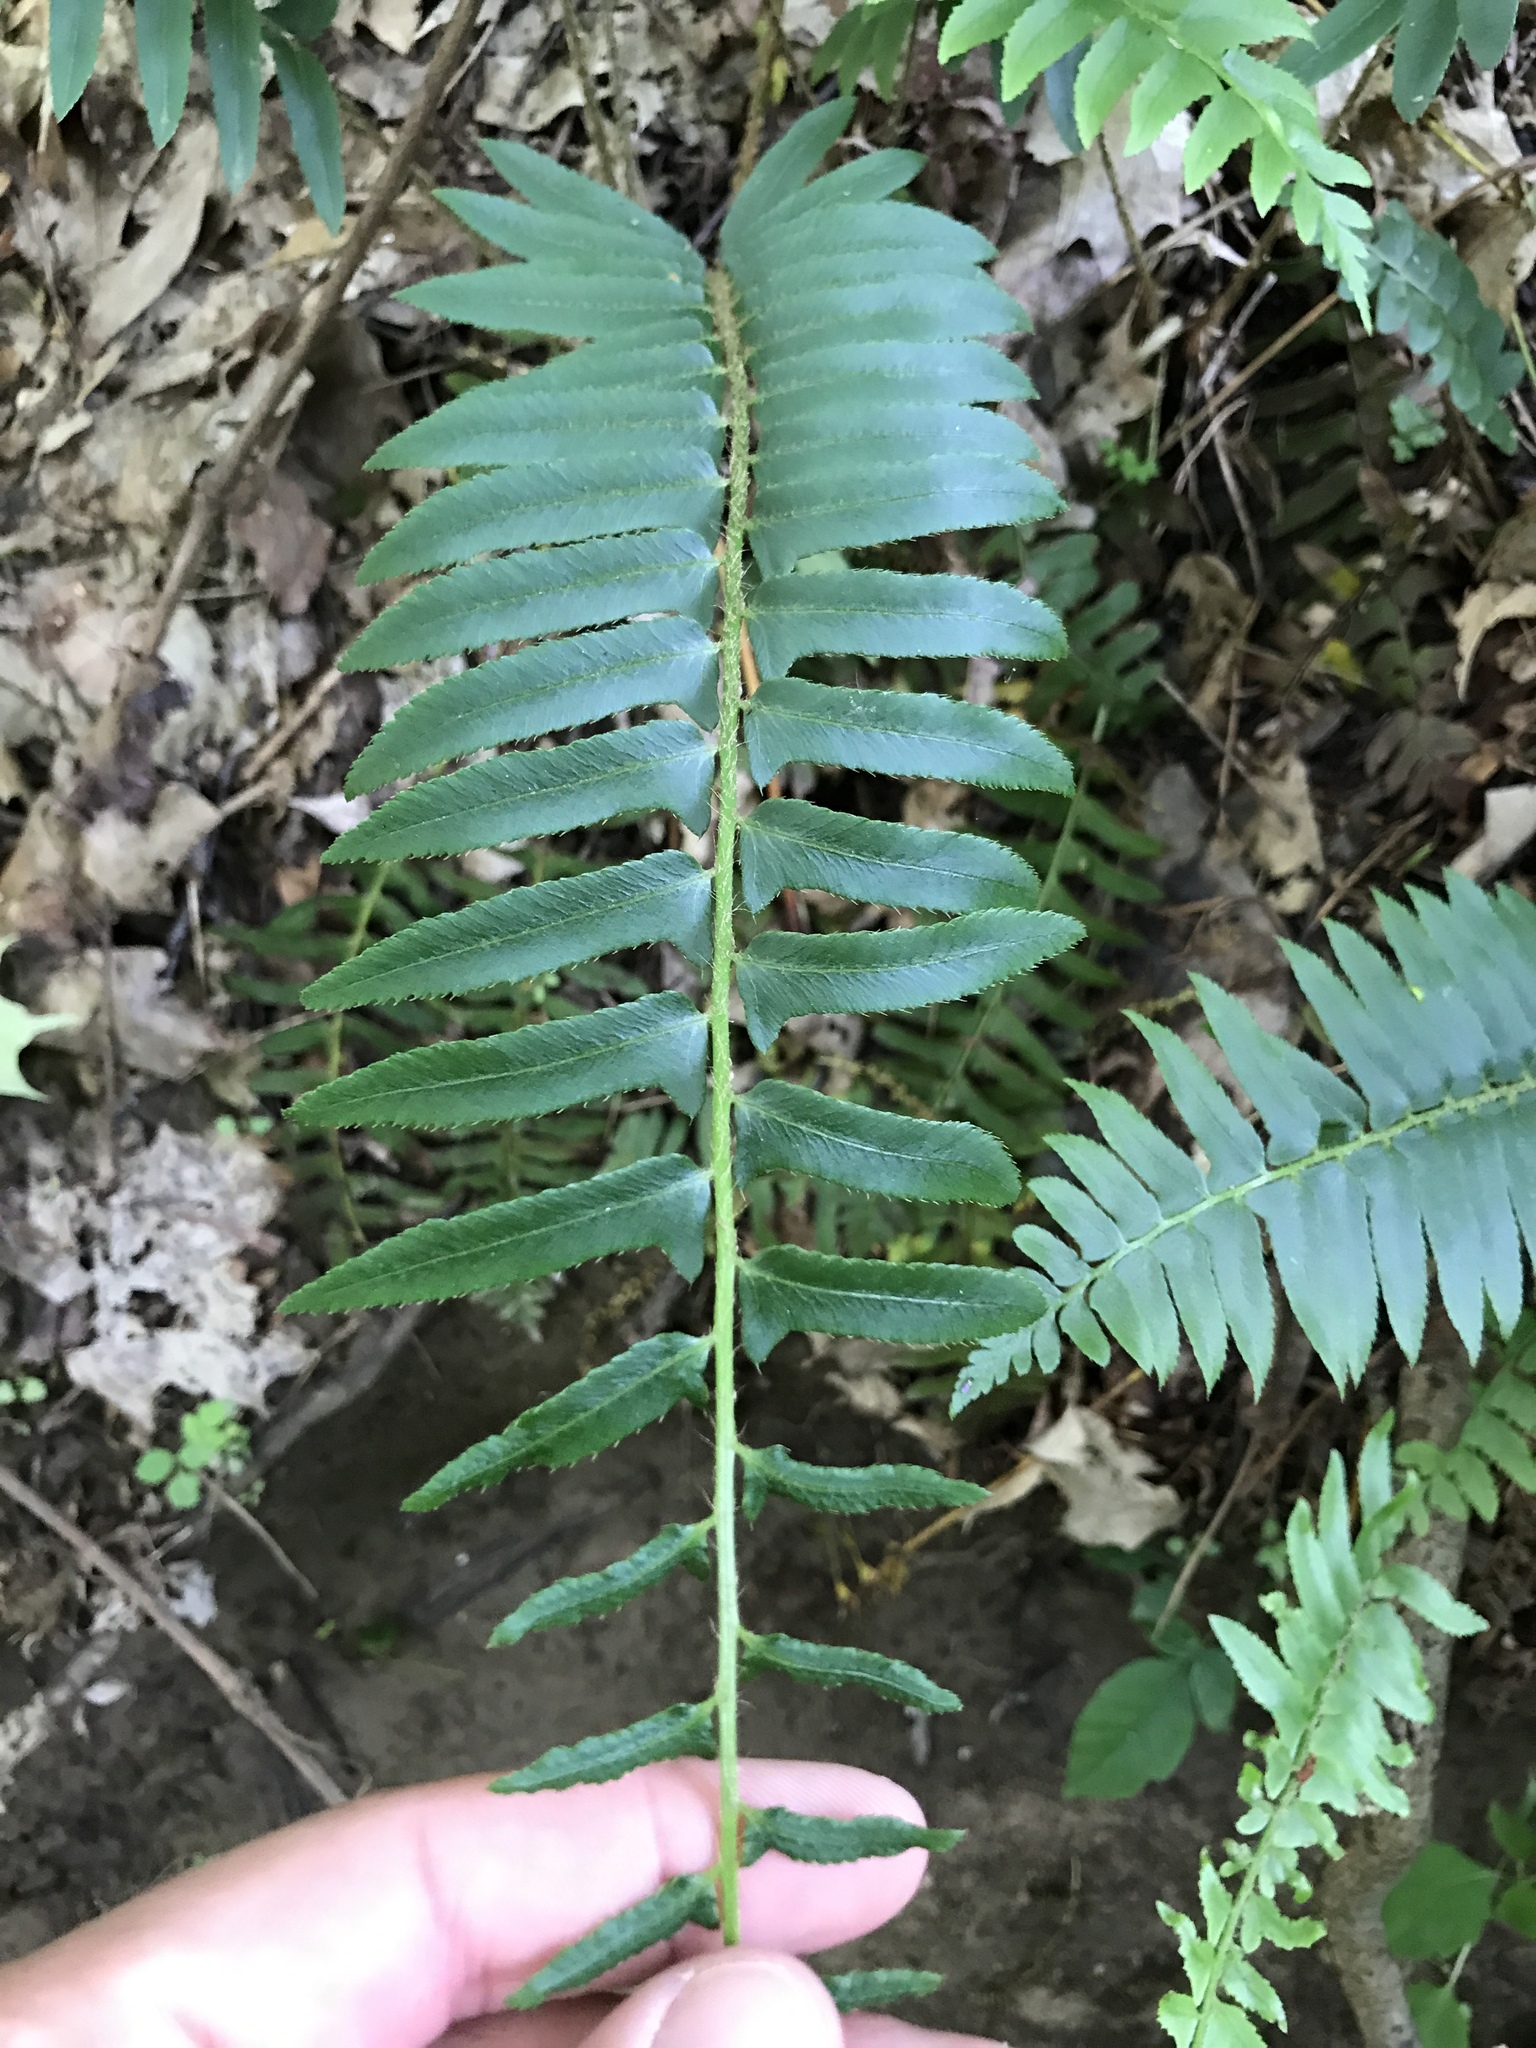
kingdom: Plantae
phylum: Tracheophyta
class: Polypodiopsida
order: Polypodiales
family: Dryopteridaceae
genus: Polystichum
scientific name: Polystichum acrostichoides
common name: Christmas fern
